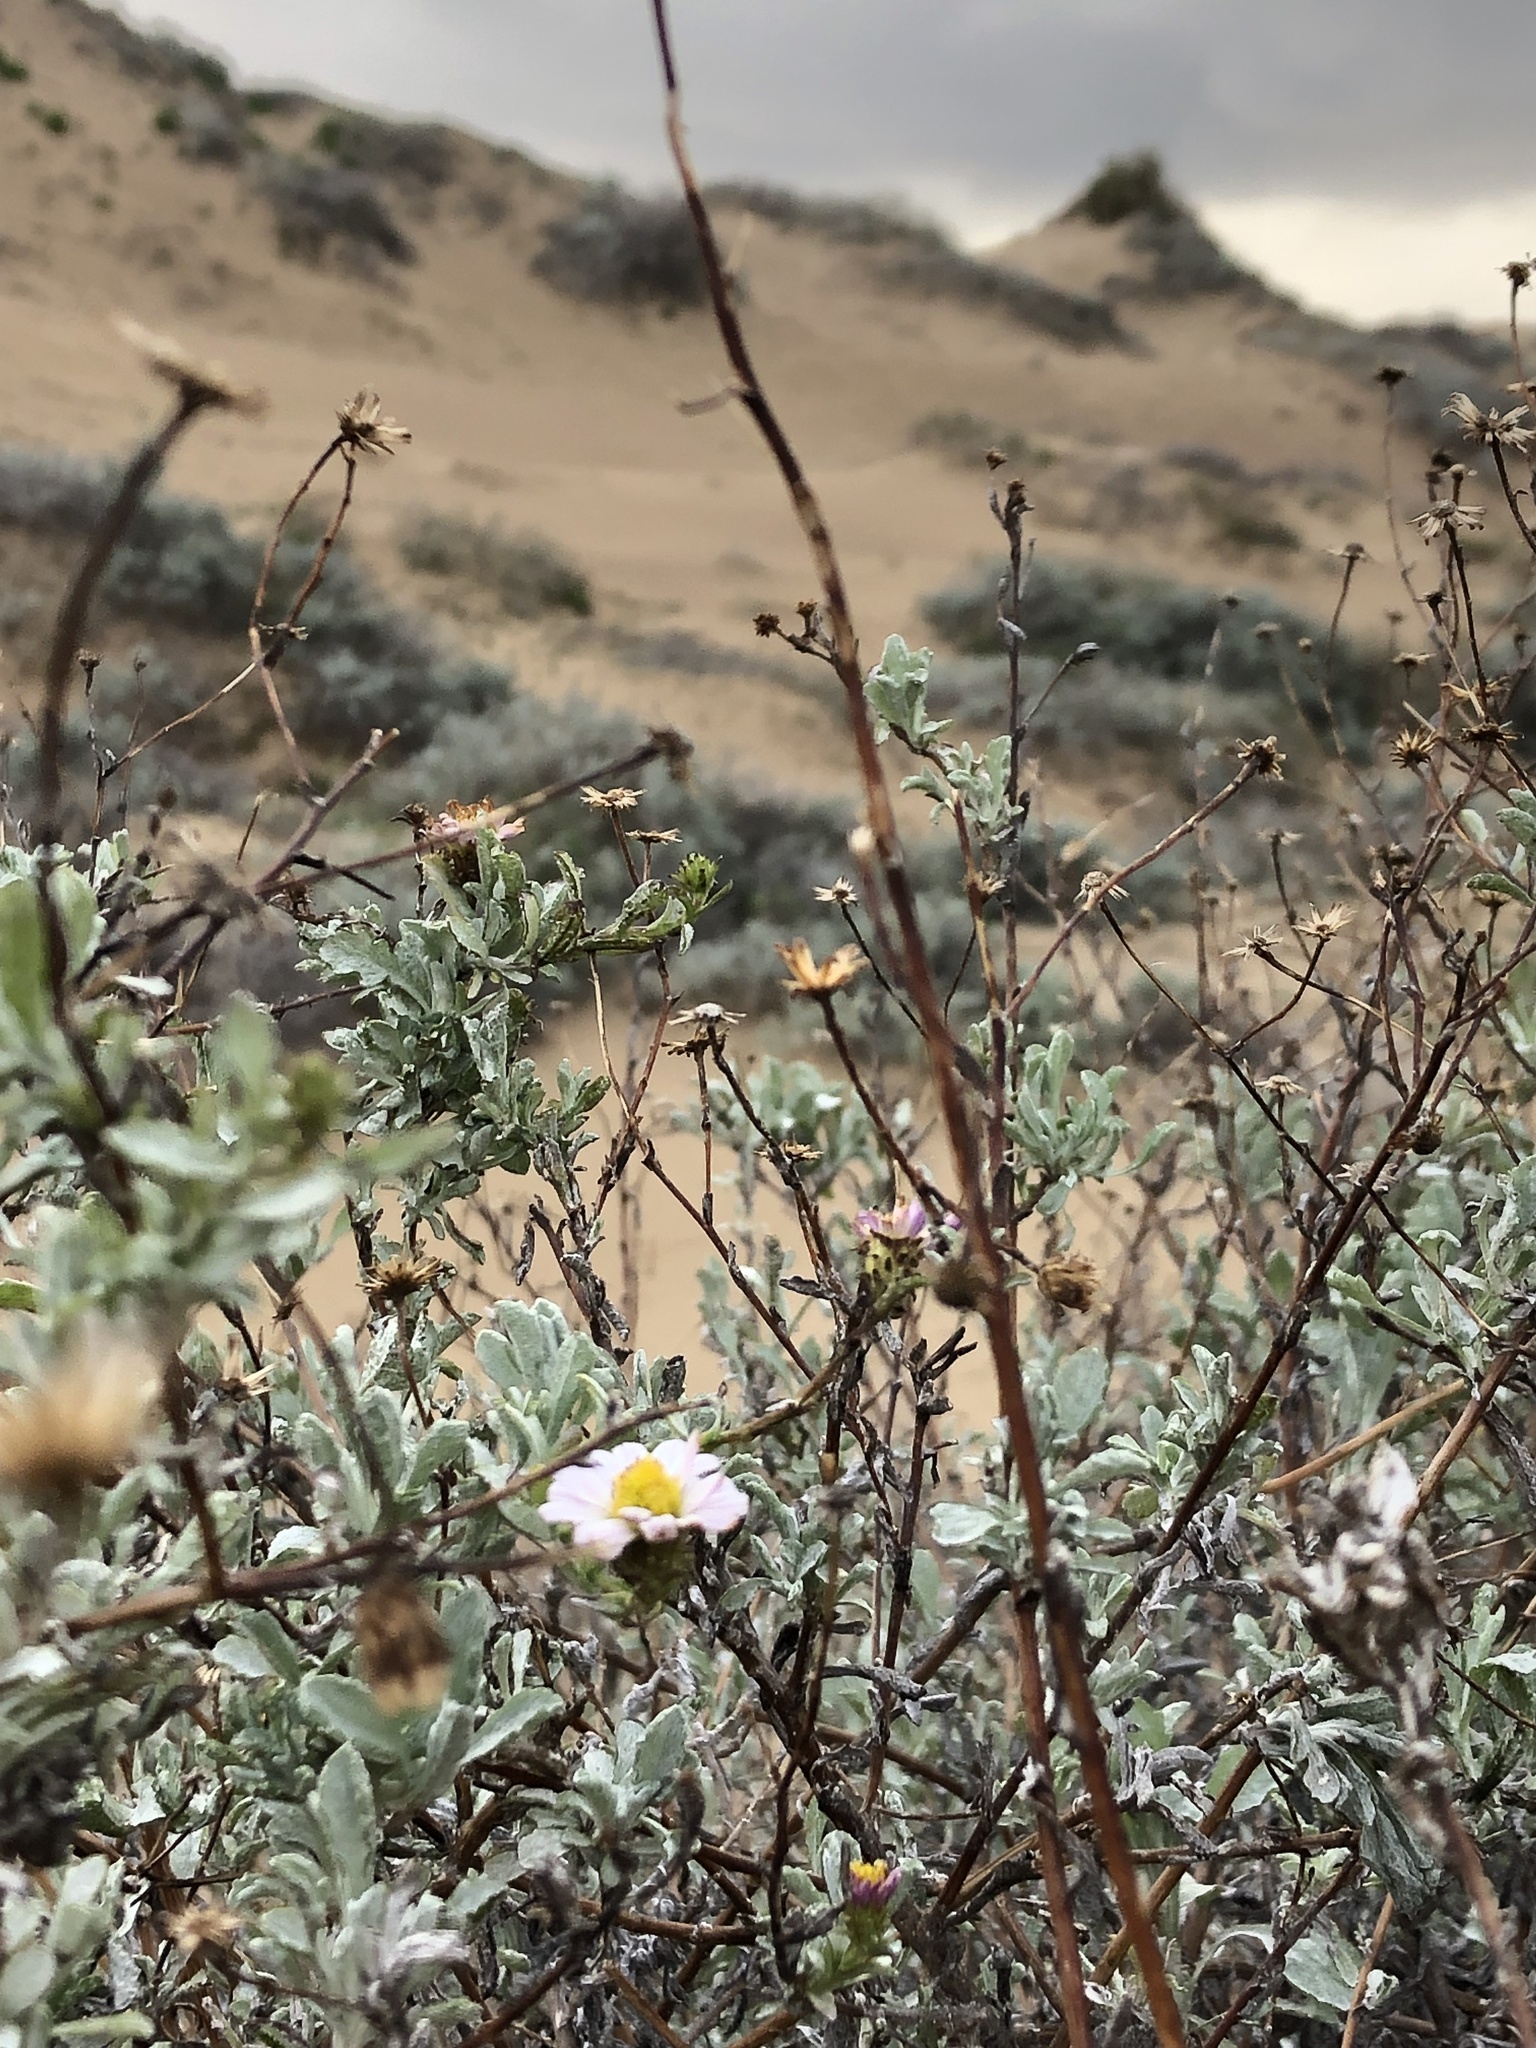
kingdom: Plantae
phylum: Tracheophyta
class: Magnoliopsida
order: Asterales
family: Asteraceae
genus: Corethrogyne
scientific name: Corethrogyne filaginifolia
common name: Sand-aster
